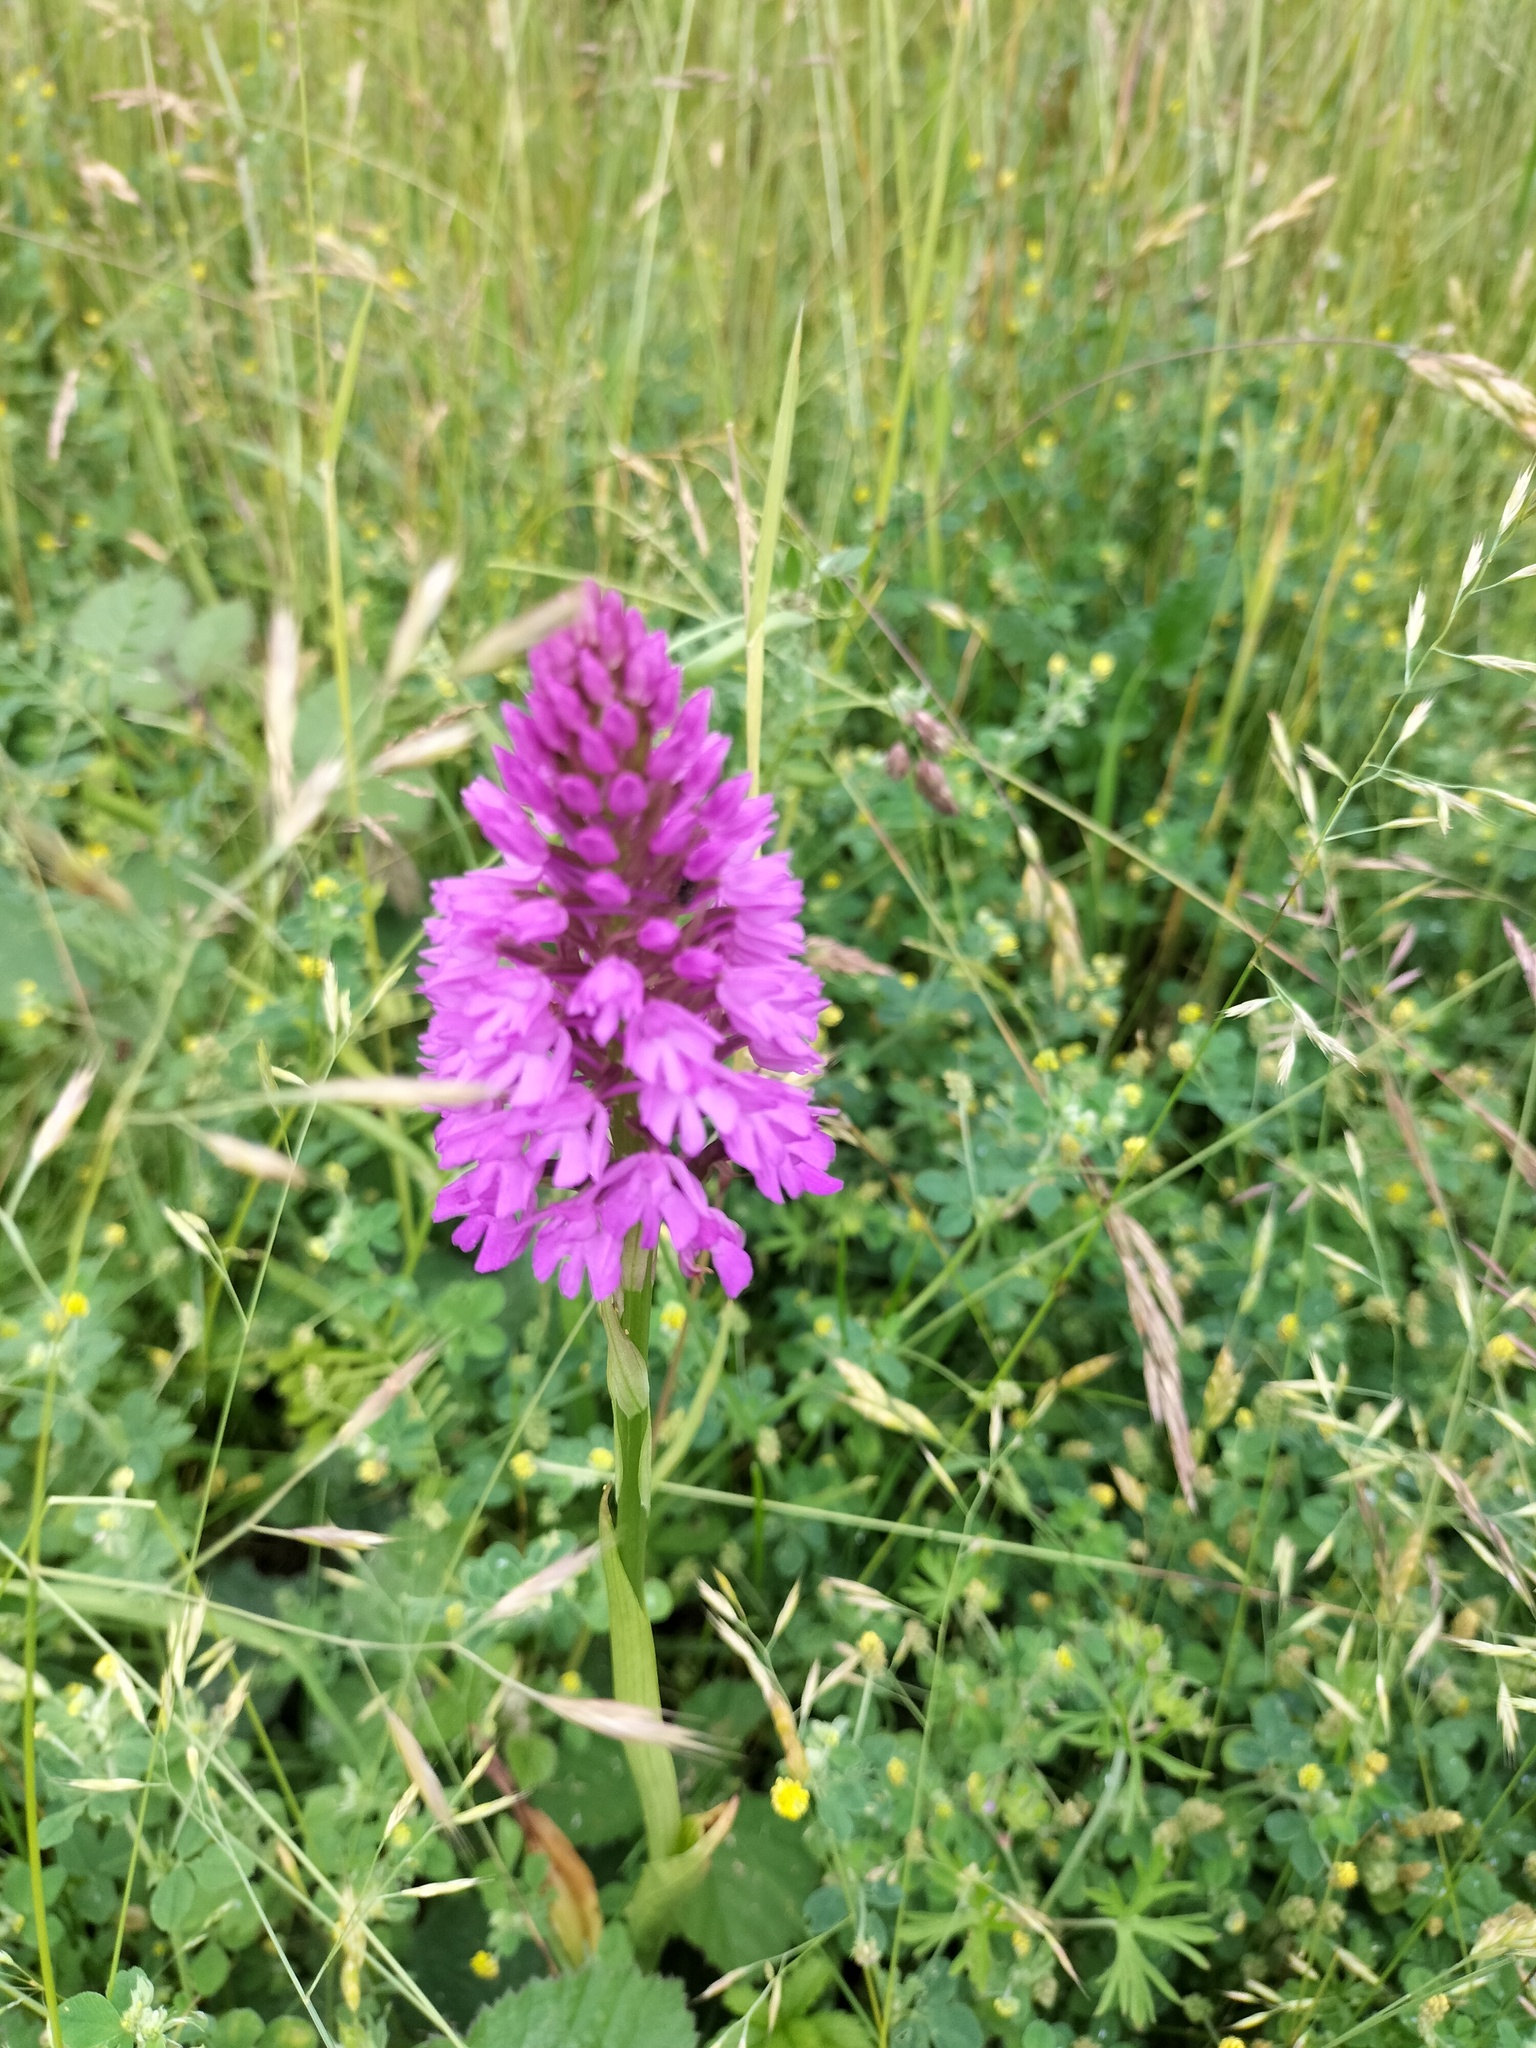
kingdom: Plantae
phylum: Tracheophyta
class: Liliopsida
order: Asparagales
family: Orchidaceae
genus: Anacamptis
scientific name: Anacamptis pyramidalis
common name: Pyramidal orchid
